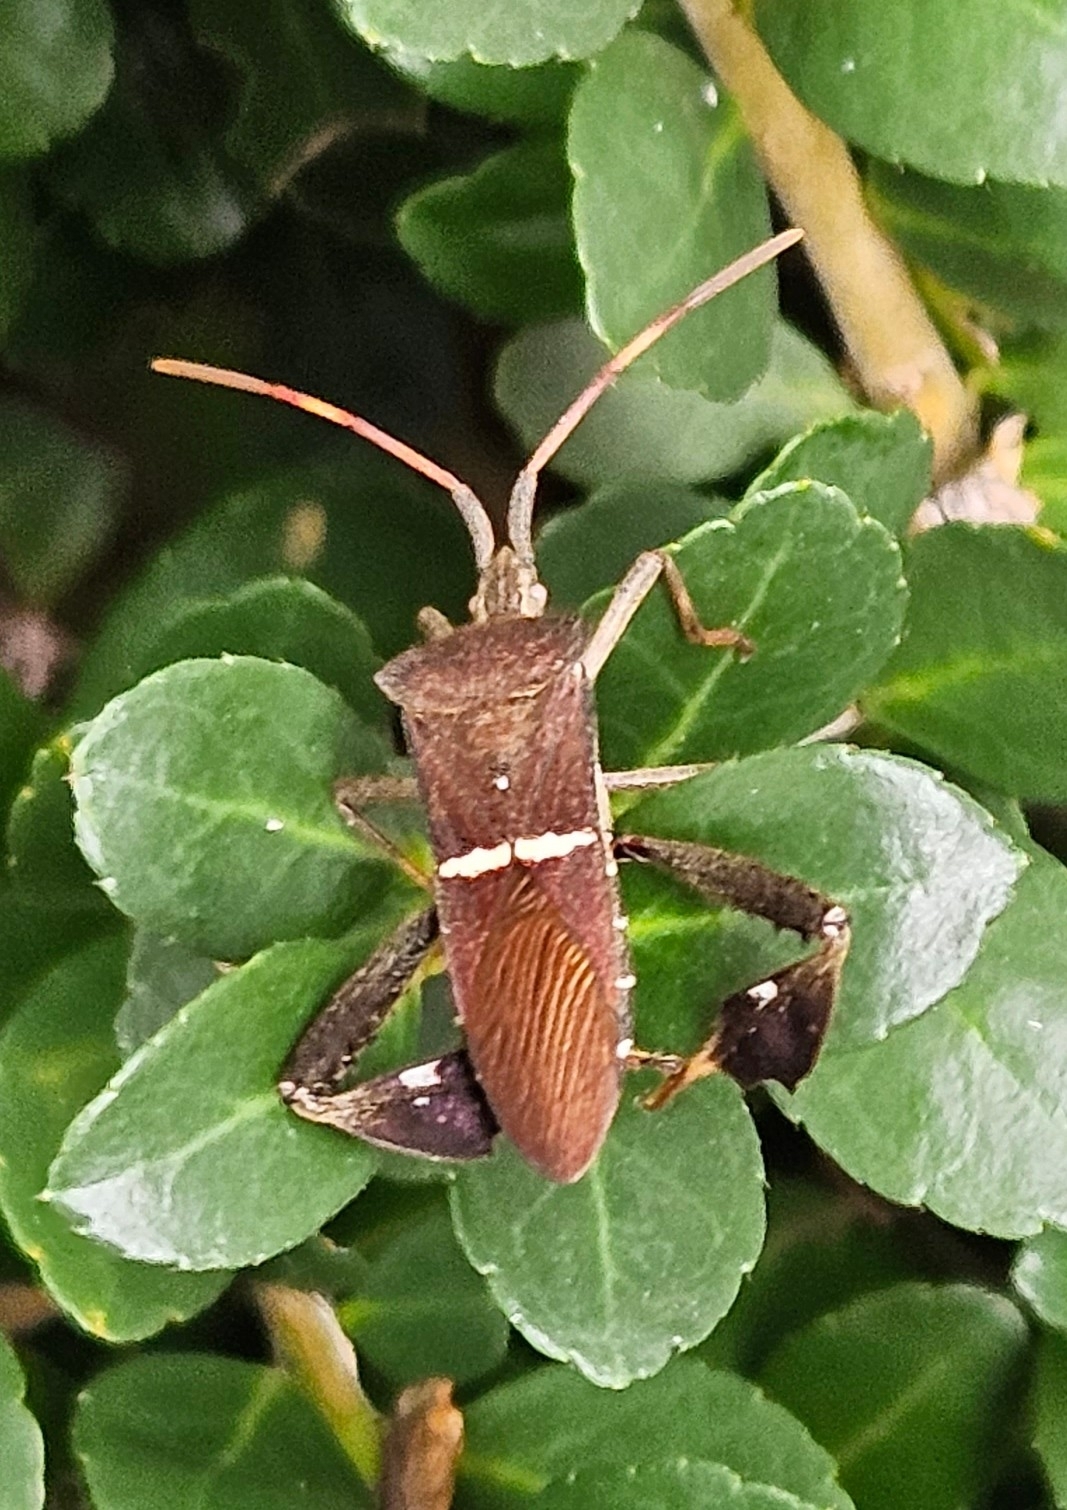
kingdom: Animalia
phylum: Arthropoda
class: Insecta
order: Hemiptera
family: Coreidae
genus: Leptoglossus
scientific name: Leptoglossus phyllopus
